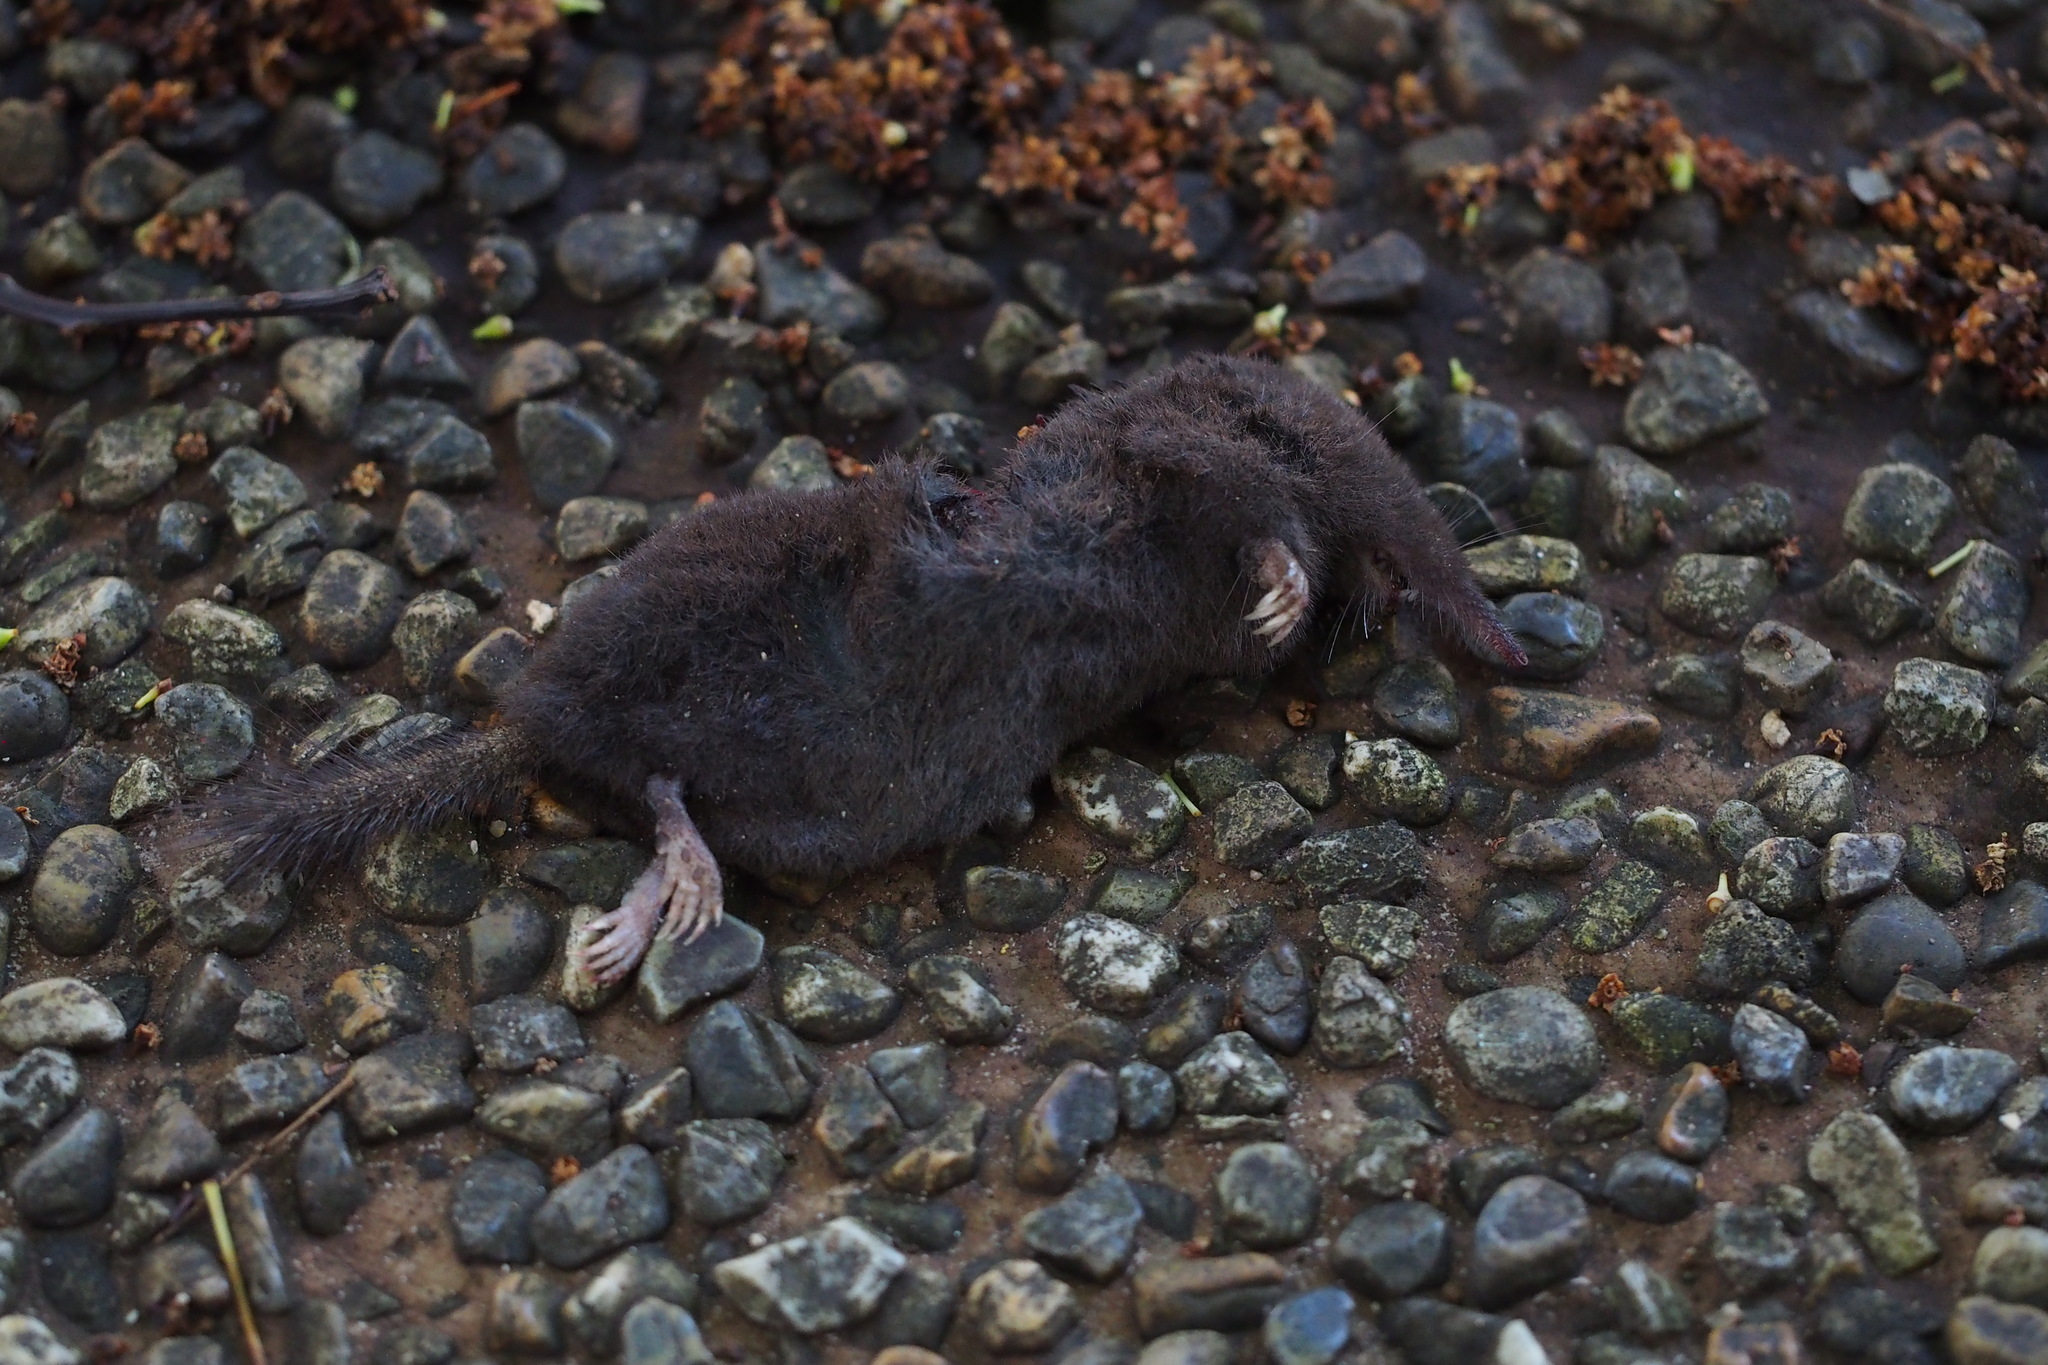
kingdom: Animalia
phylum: Chordata
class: Mammalia
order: Soricomorpha
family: Talpidae
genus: Urotrichus
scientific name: Urotrichus talpoides
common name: Japanese shrew mole
